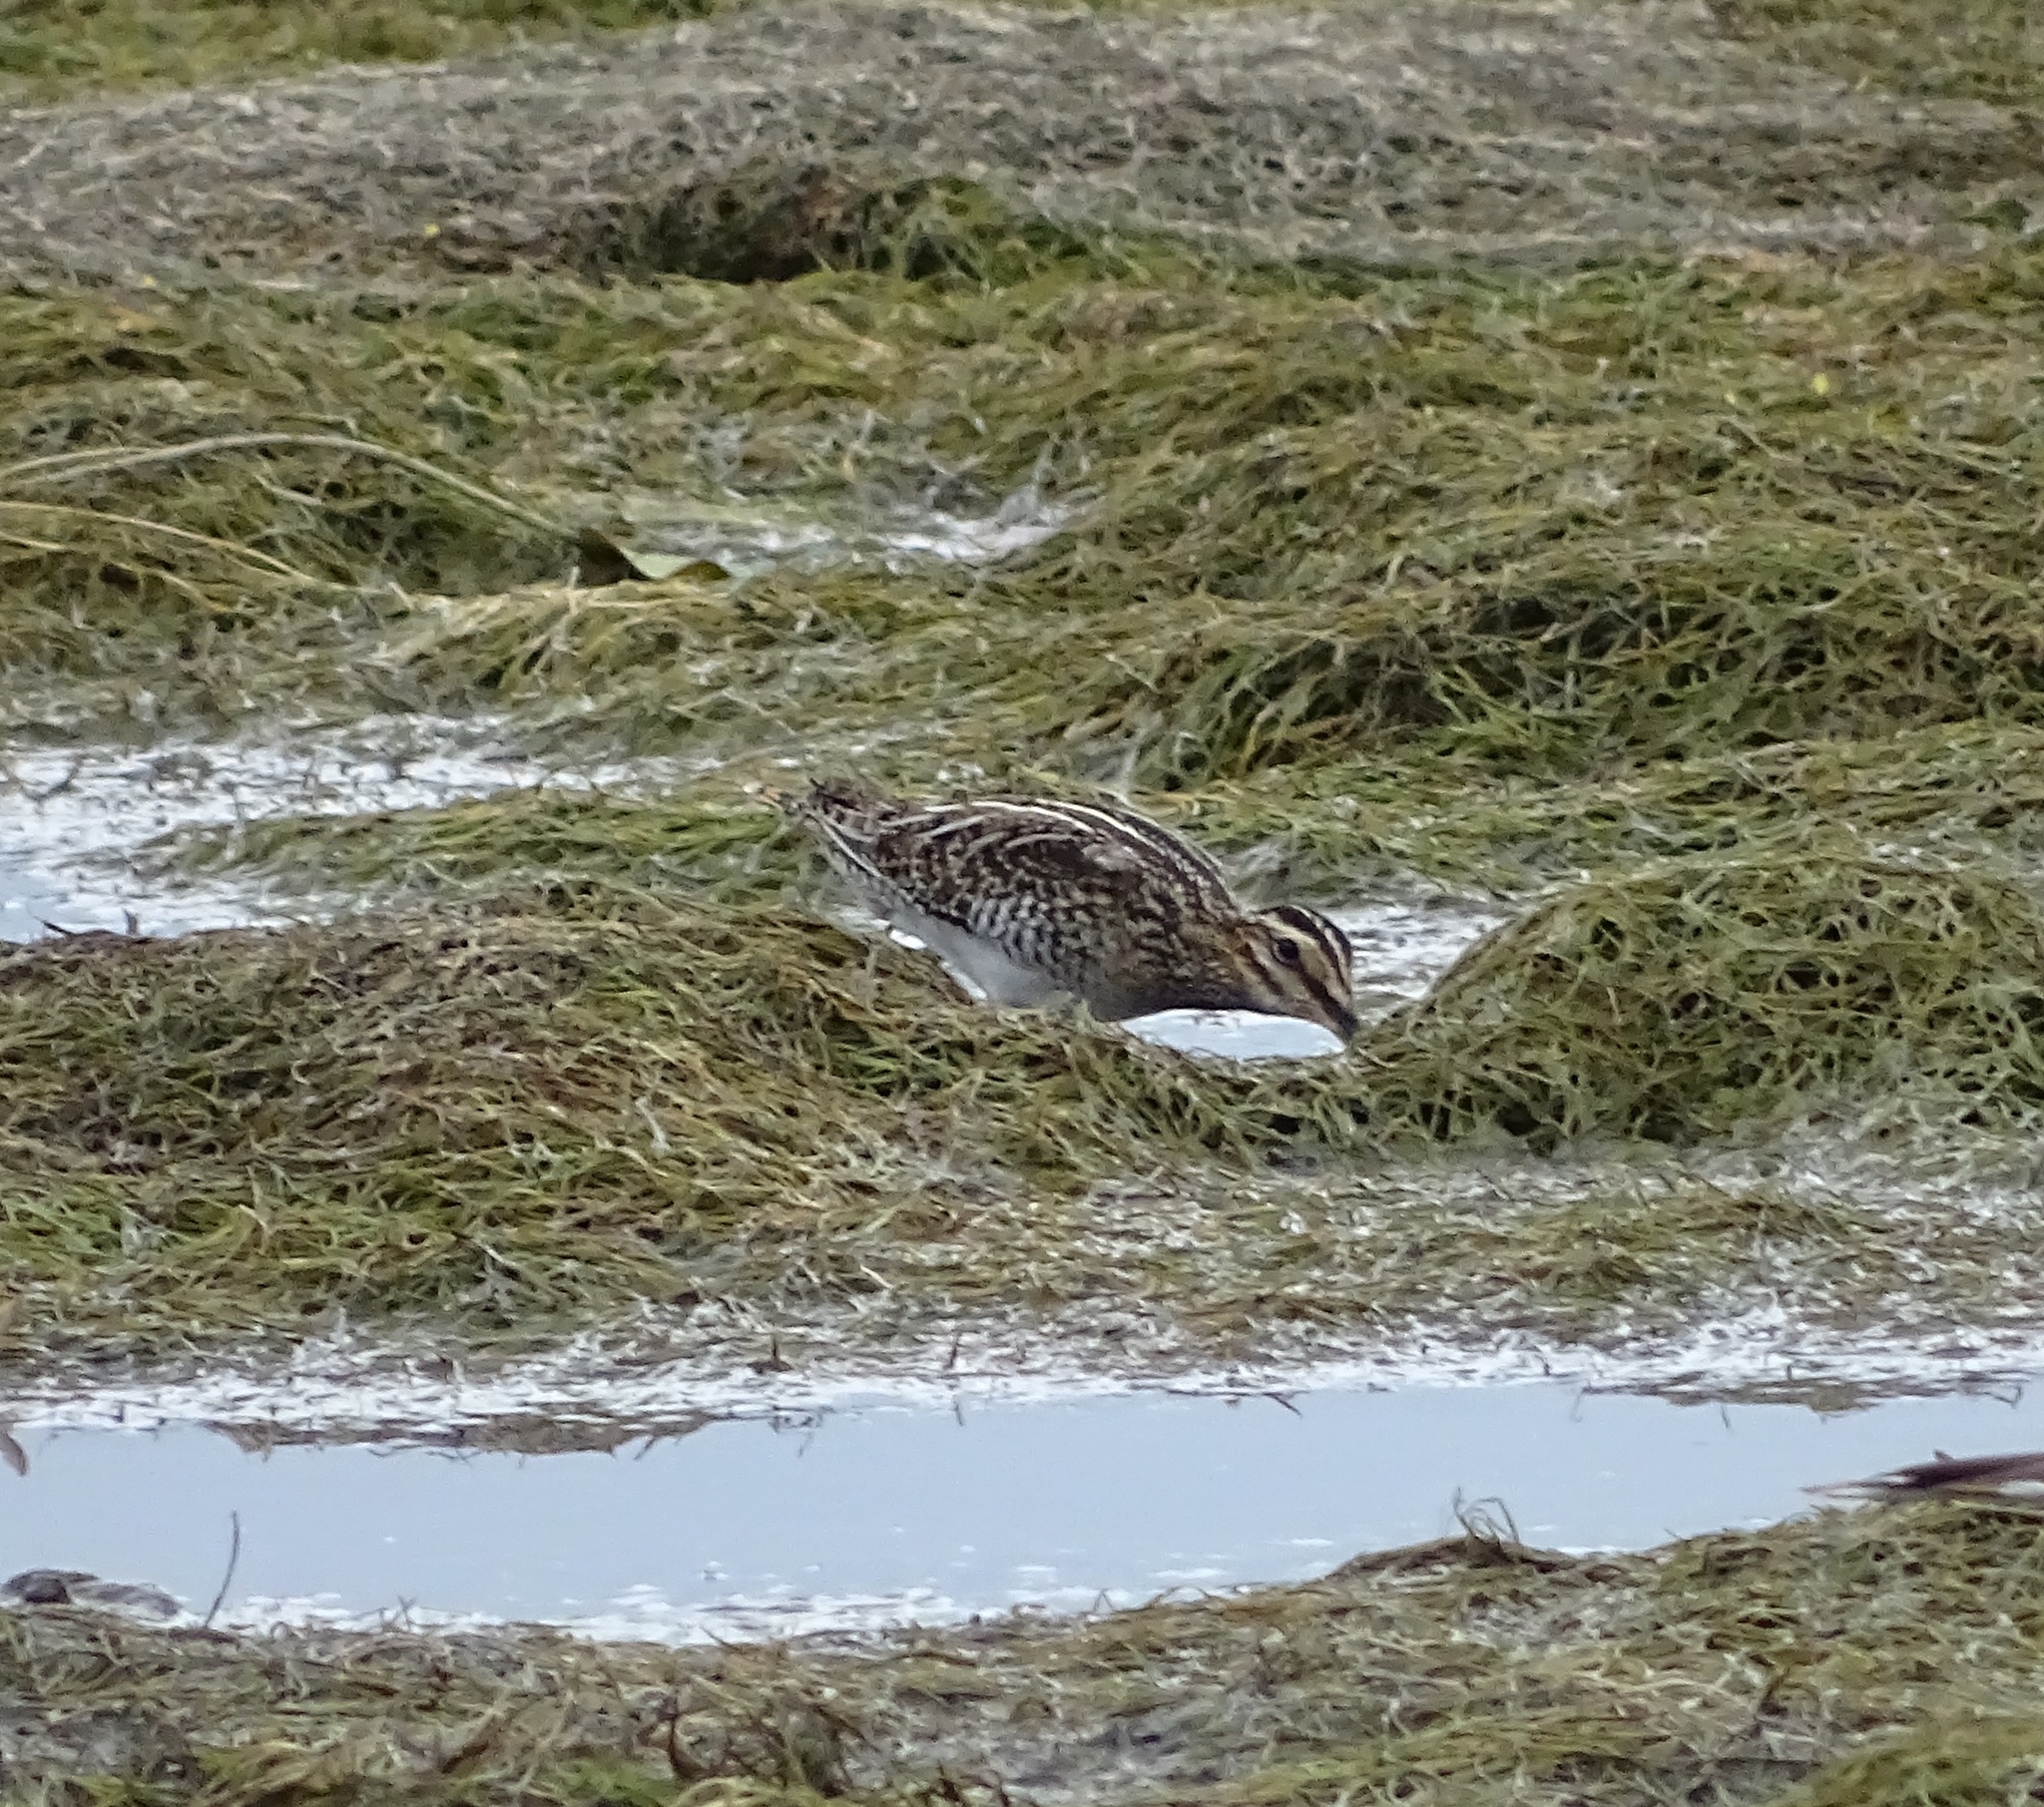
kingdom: Animalia
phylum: Chordata
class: Aves
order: Charadriiformes
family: Scolopacidae
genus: Gallinago
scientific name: Gallinago delicata
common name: Wilson's snipe
